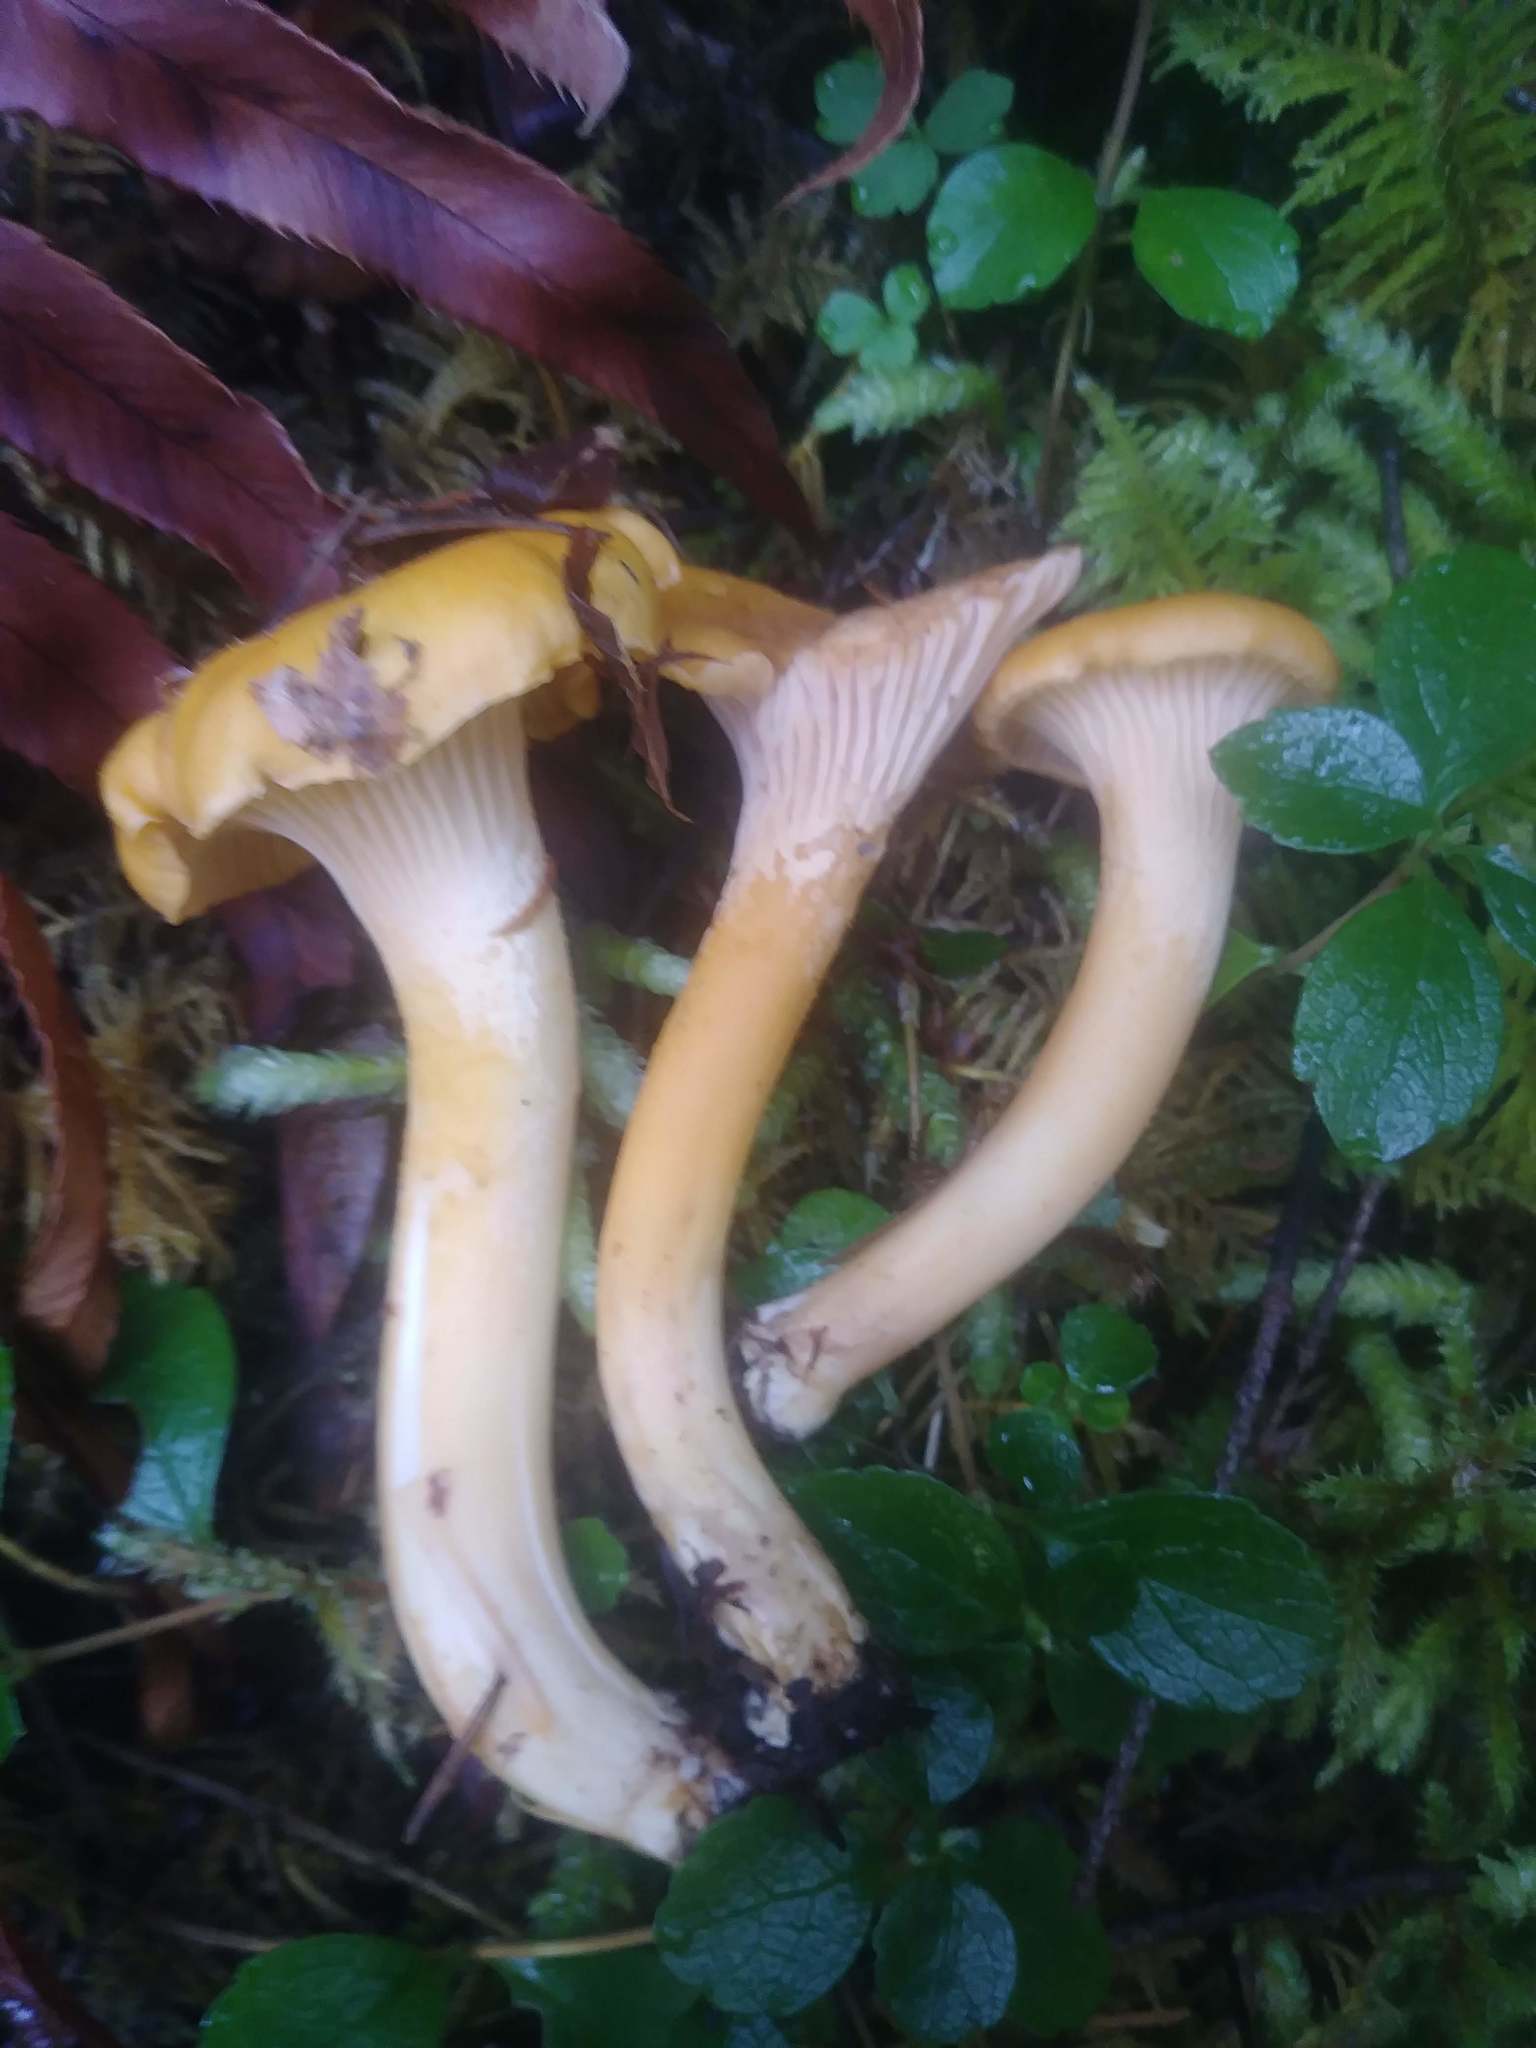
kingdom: Fungi
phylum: Basidiomycota
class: Agaricomycetes
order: Cantharellales
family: Hydnaceae
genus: Cantharellus
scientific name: Cantharellus formosus
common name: Pacific golden chanterelle
